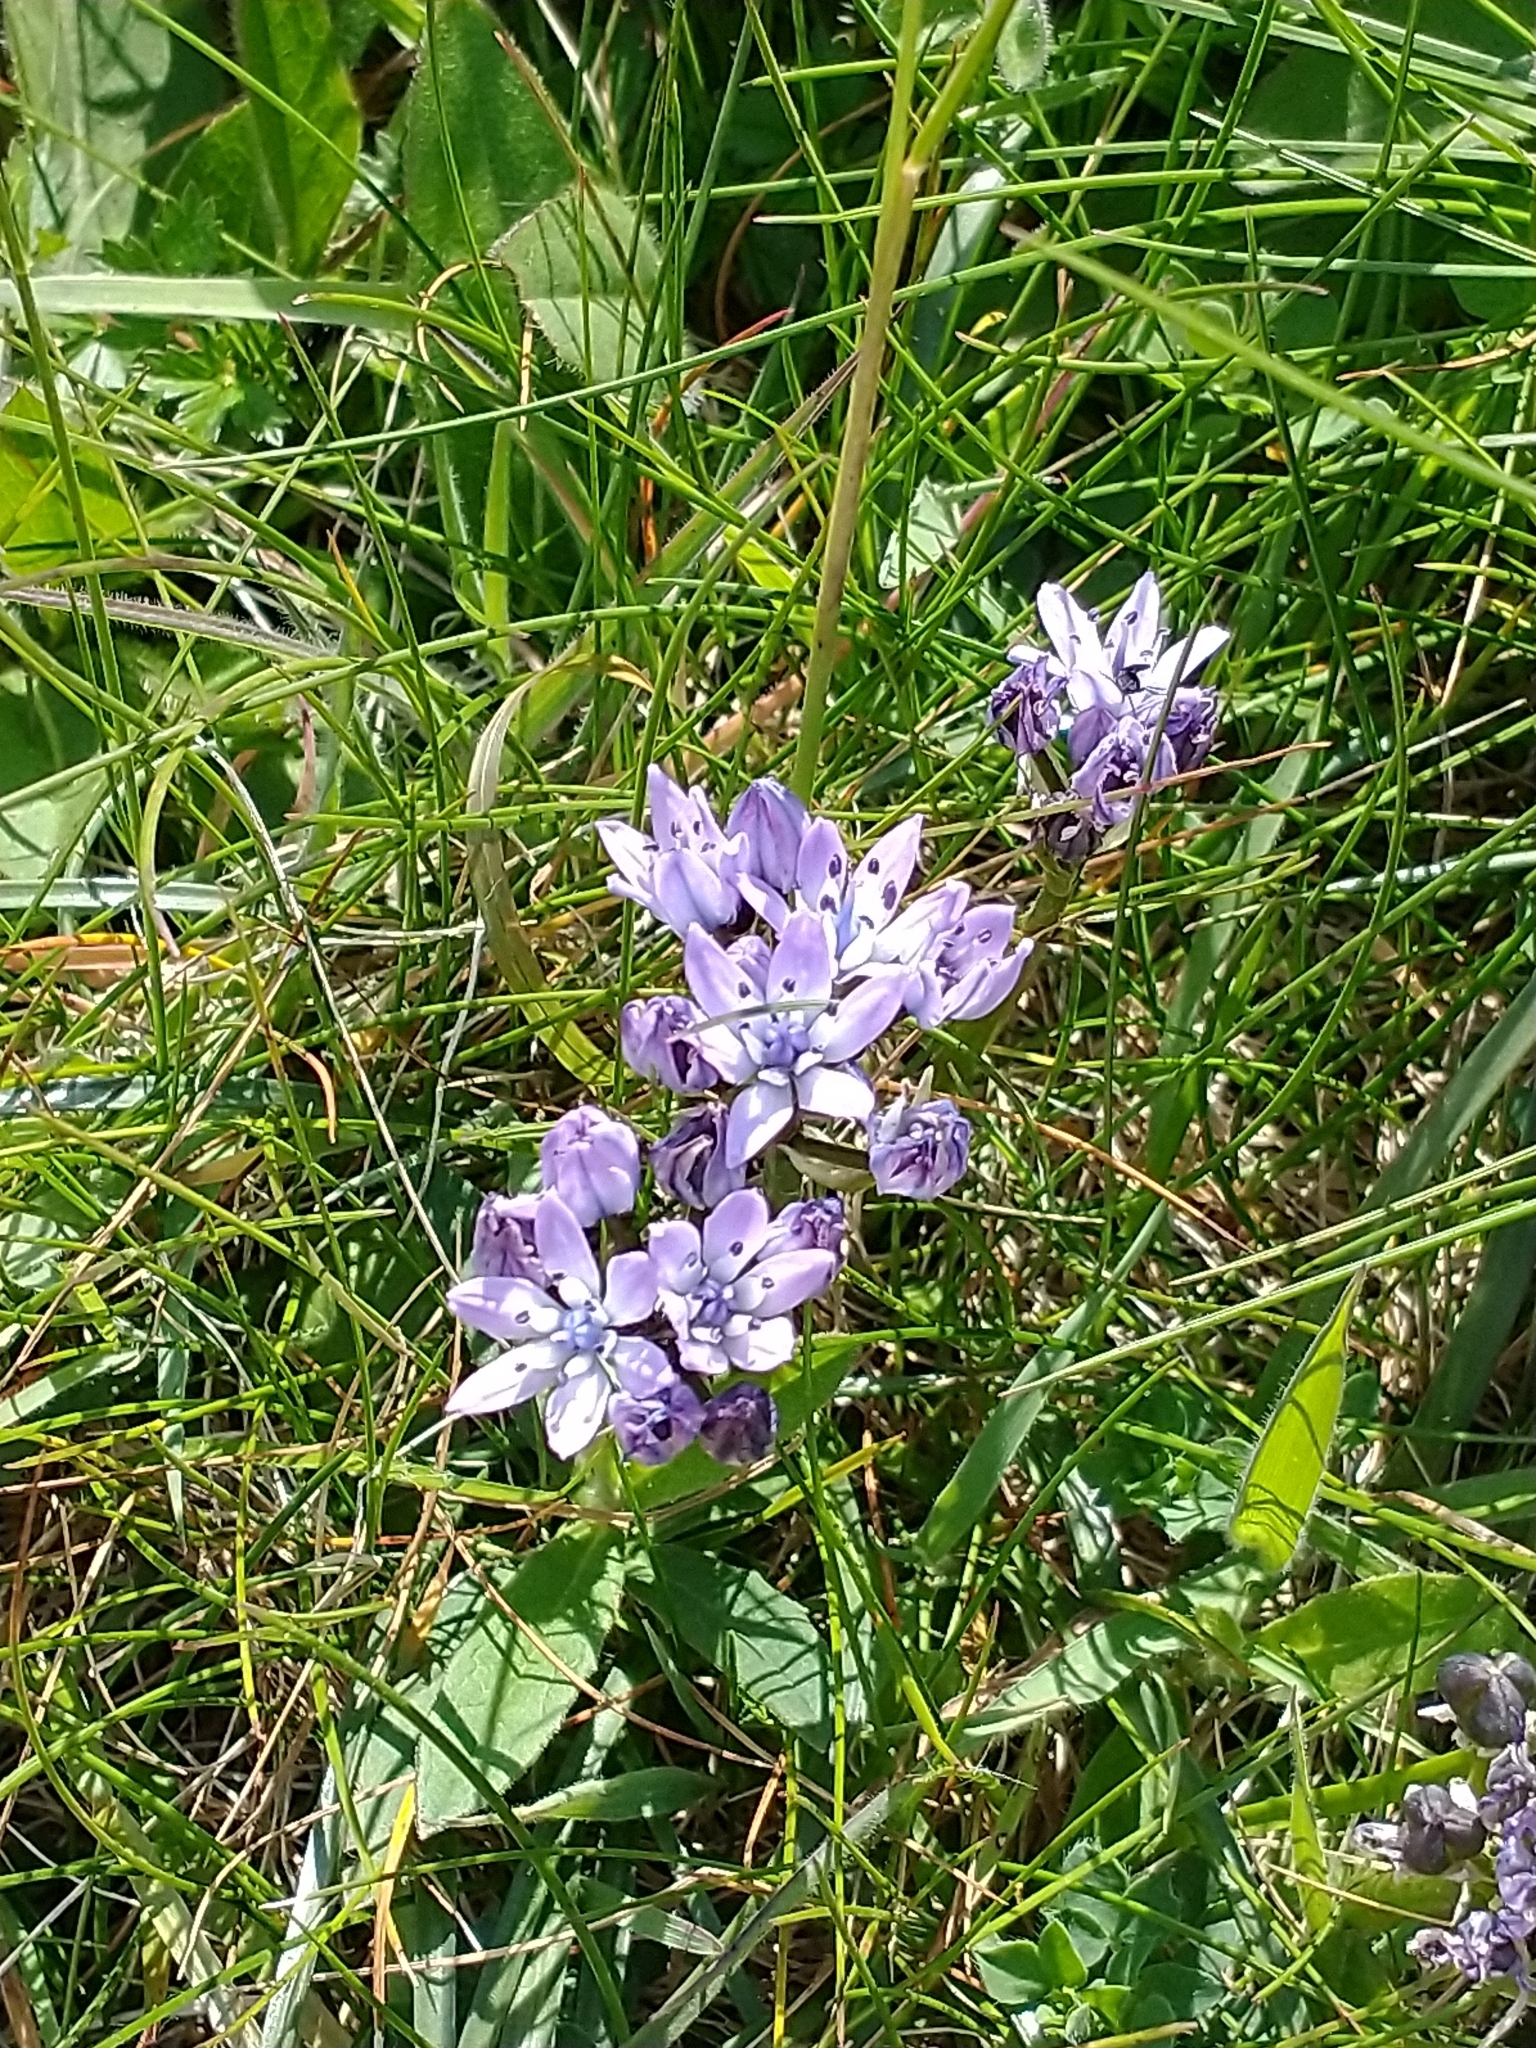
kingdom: Plantae
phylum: Tracheophyta
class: Liliopsida
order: Asparagales
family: Asparagaceae
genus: Scilla
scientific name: Scilla verna
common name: Spring squill
